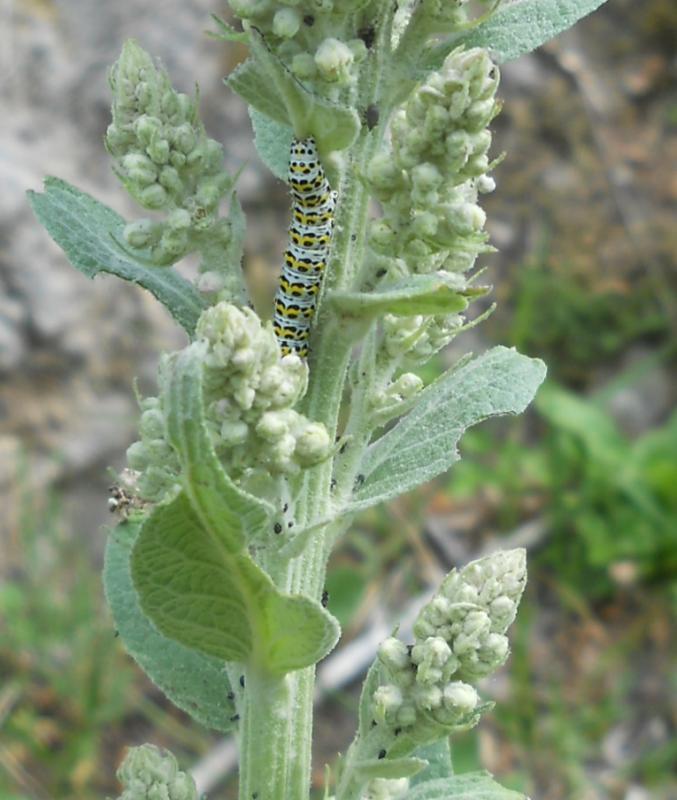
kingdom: Animalia
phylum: Arthropoda
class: Insecta
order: Lepidoptera
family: Noctuidae
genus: Cucullia
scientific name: Cucullia verbasci
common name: Mullein
